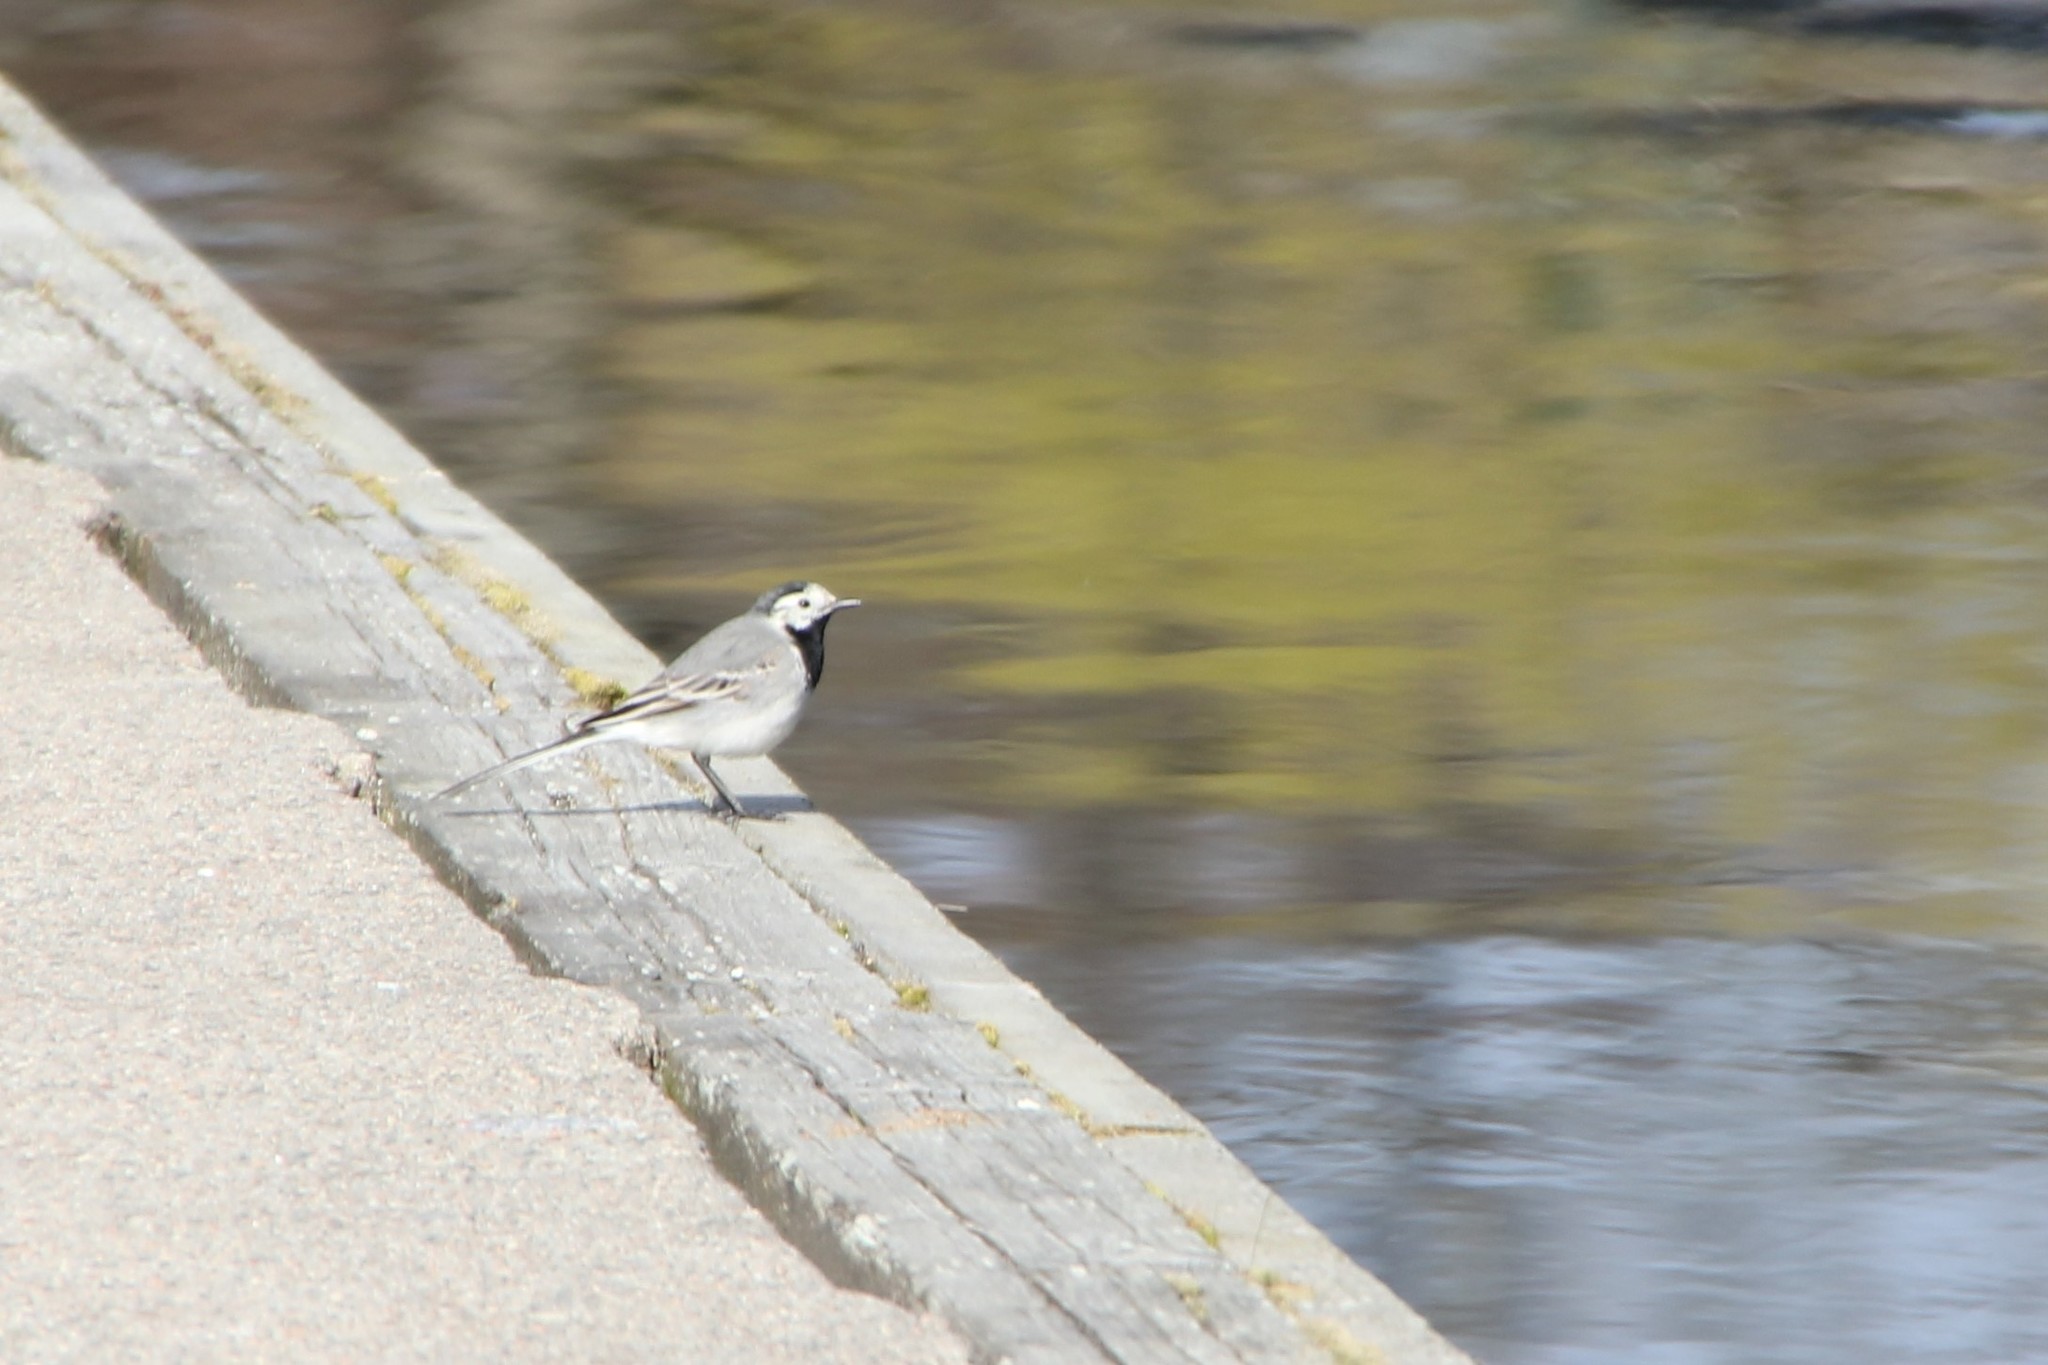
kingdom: Animalia
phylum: Chordata
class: Aves
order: Passeriformes
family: Motacillidae
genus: Motacilla
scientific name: Motacilla alba
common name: White wagtail
